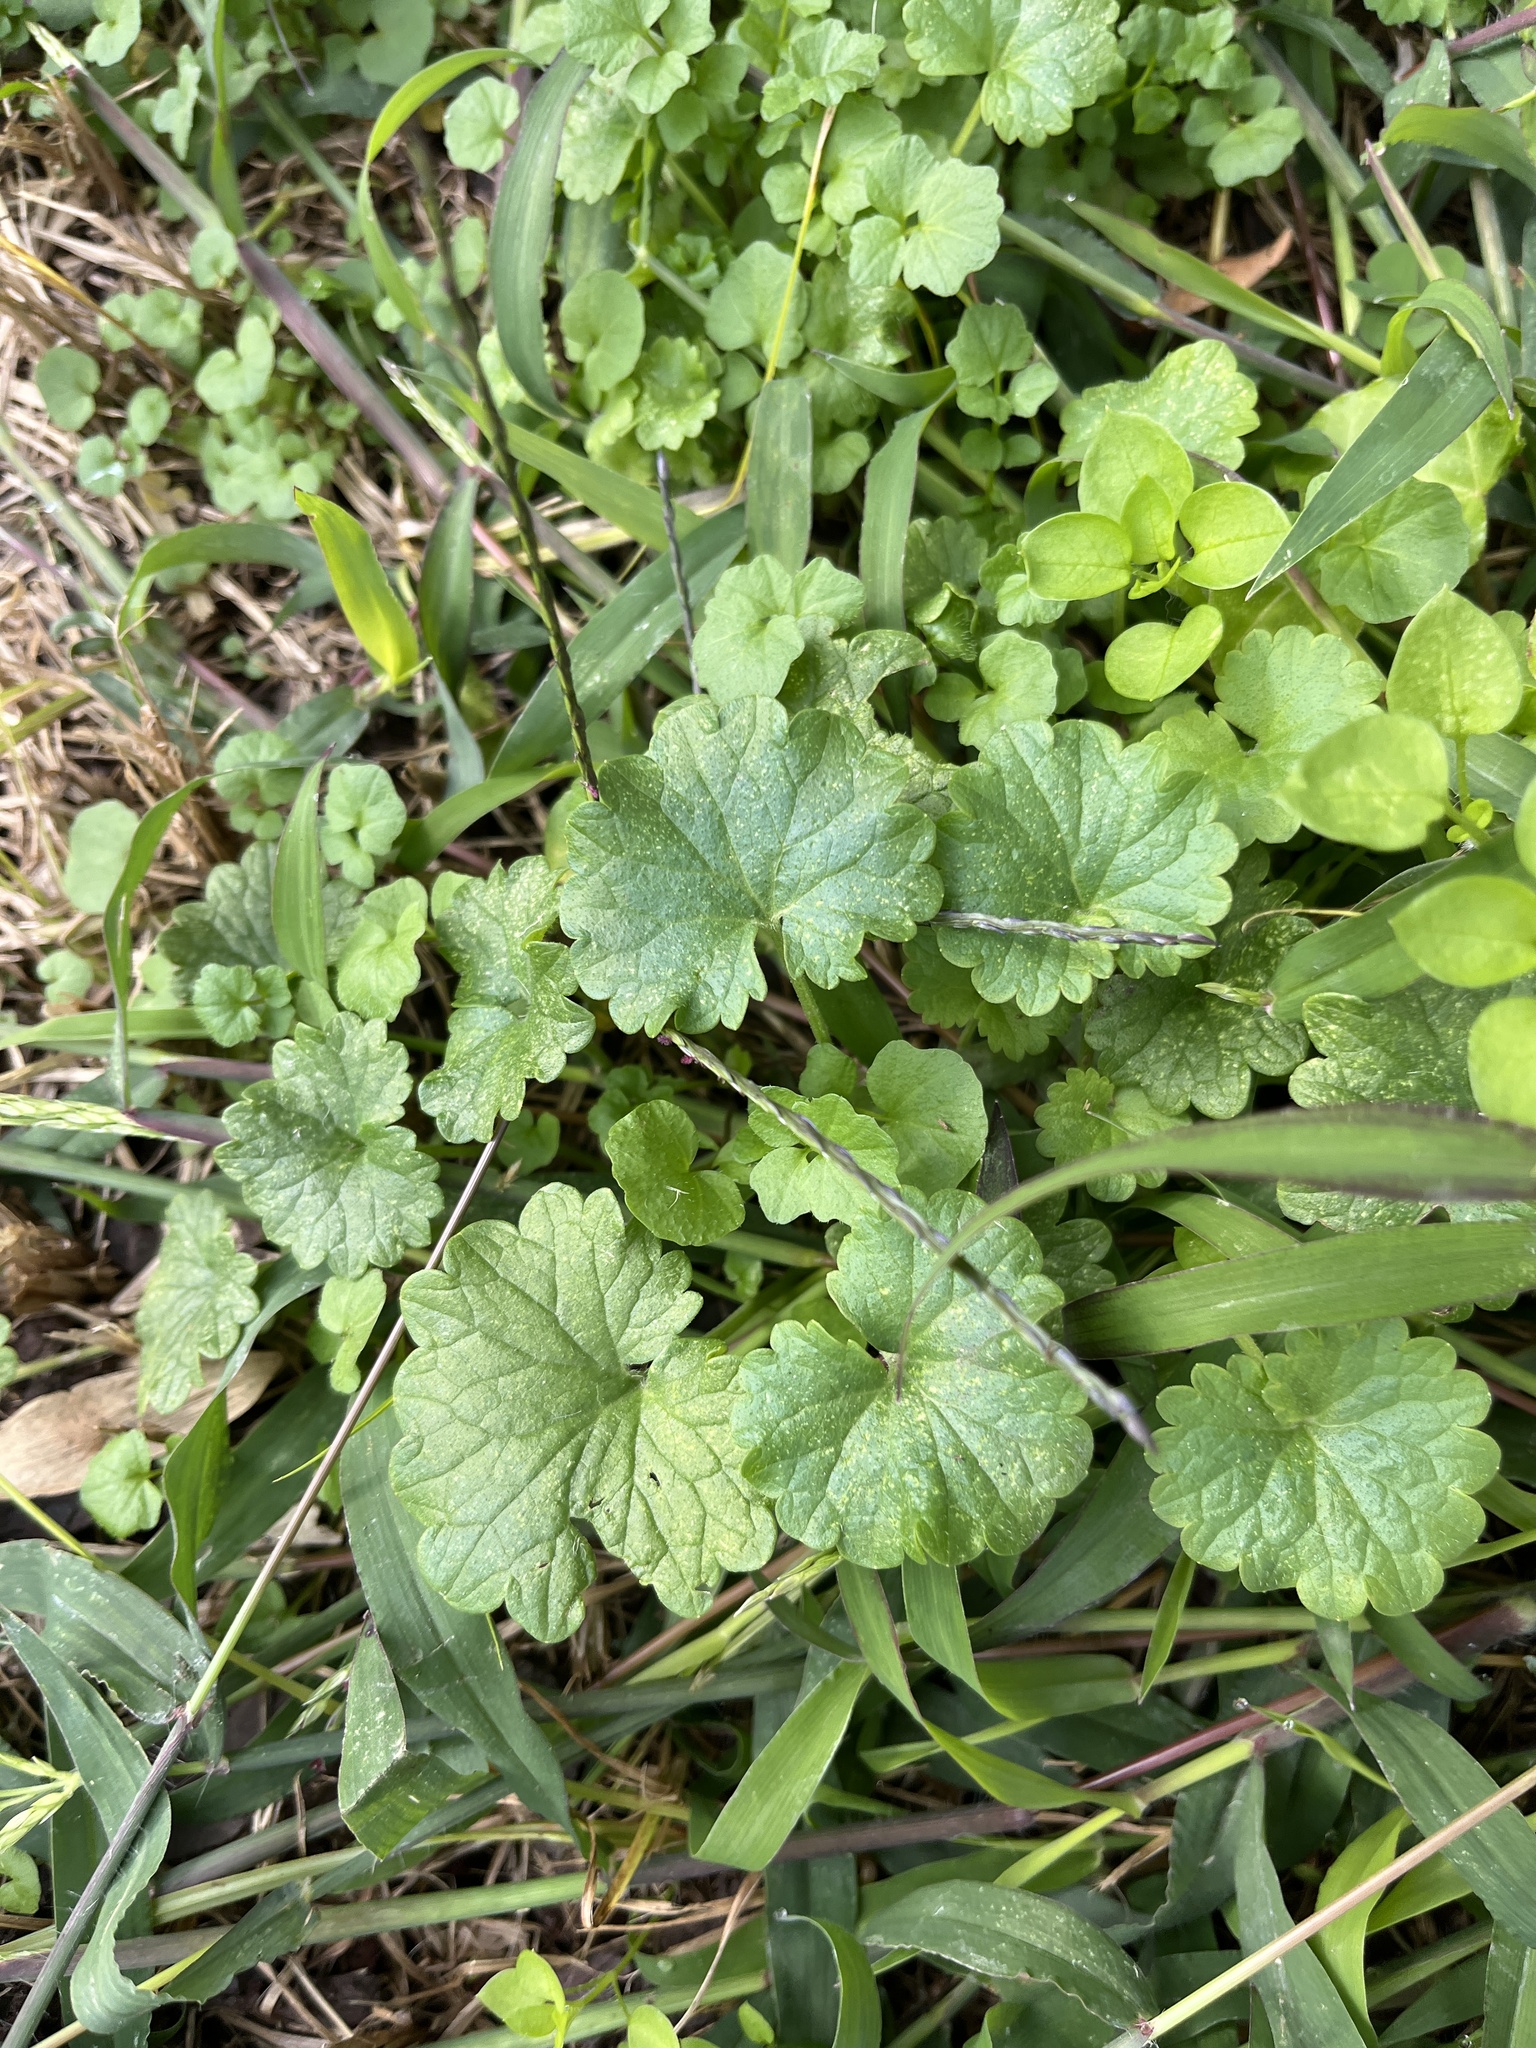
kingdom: Plantae
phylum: Tracheophyta
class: Magnoliopsida
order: Lamiales
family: Lamiaceae
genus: Glechoma
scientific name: Glechoma hederacea
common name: Ground ivy
